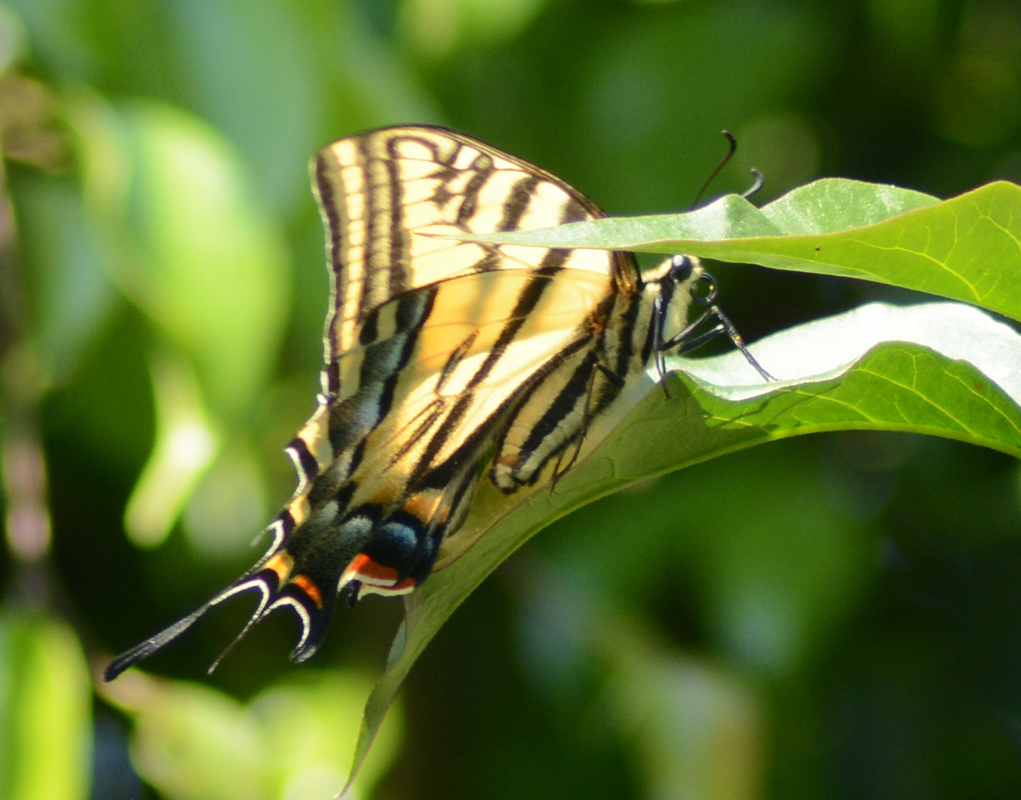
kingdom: Animalia
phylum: Arthropoda
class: Insecta
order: Lepidoptera
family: Papilionidae
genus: Papilio
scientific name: Papilio multicaudata
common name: Two-tailed tiger swallowtail
